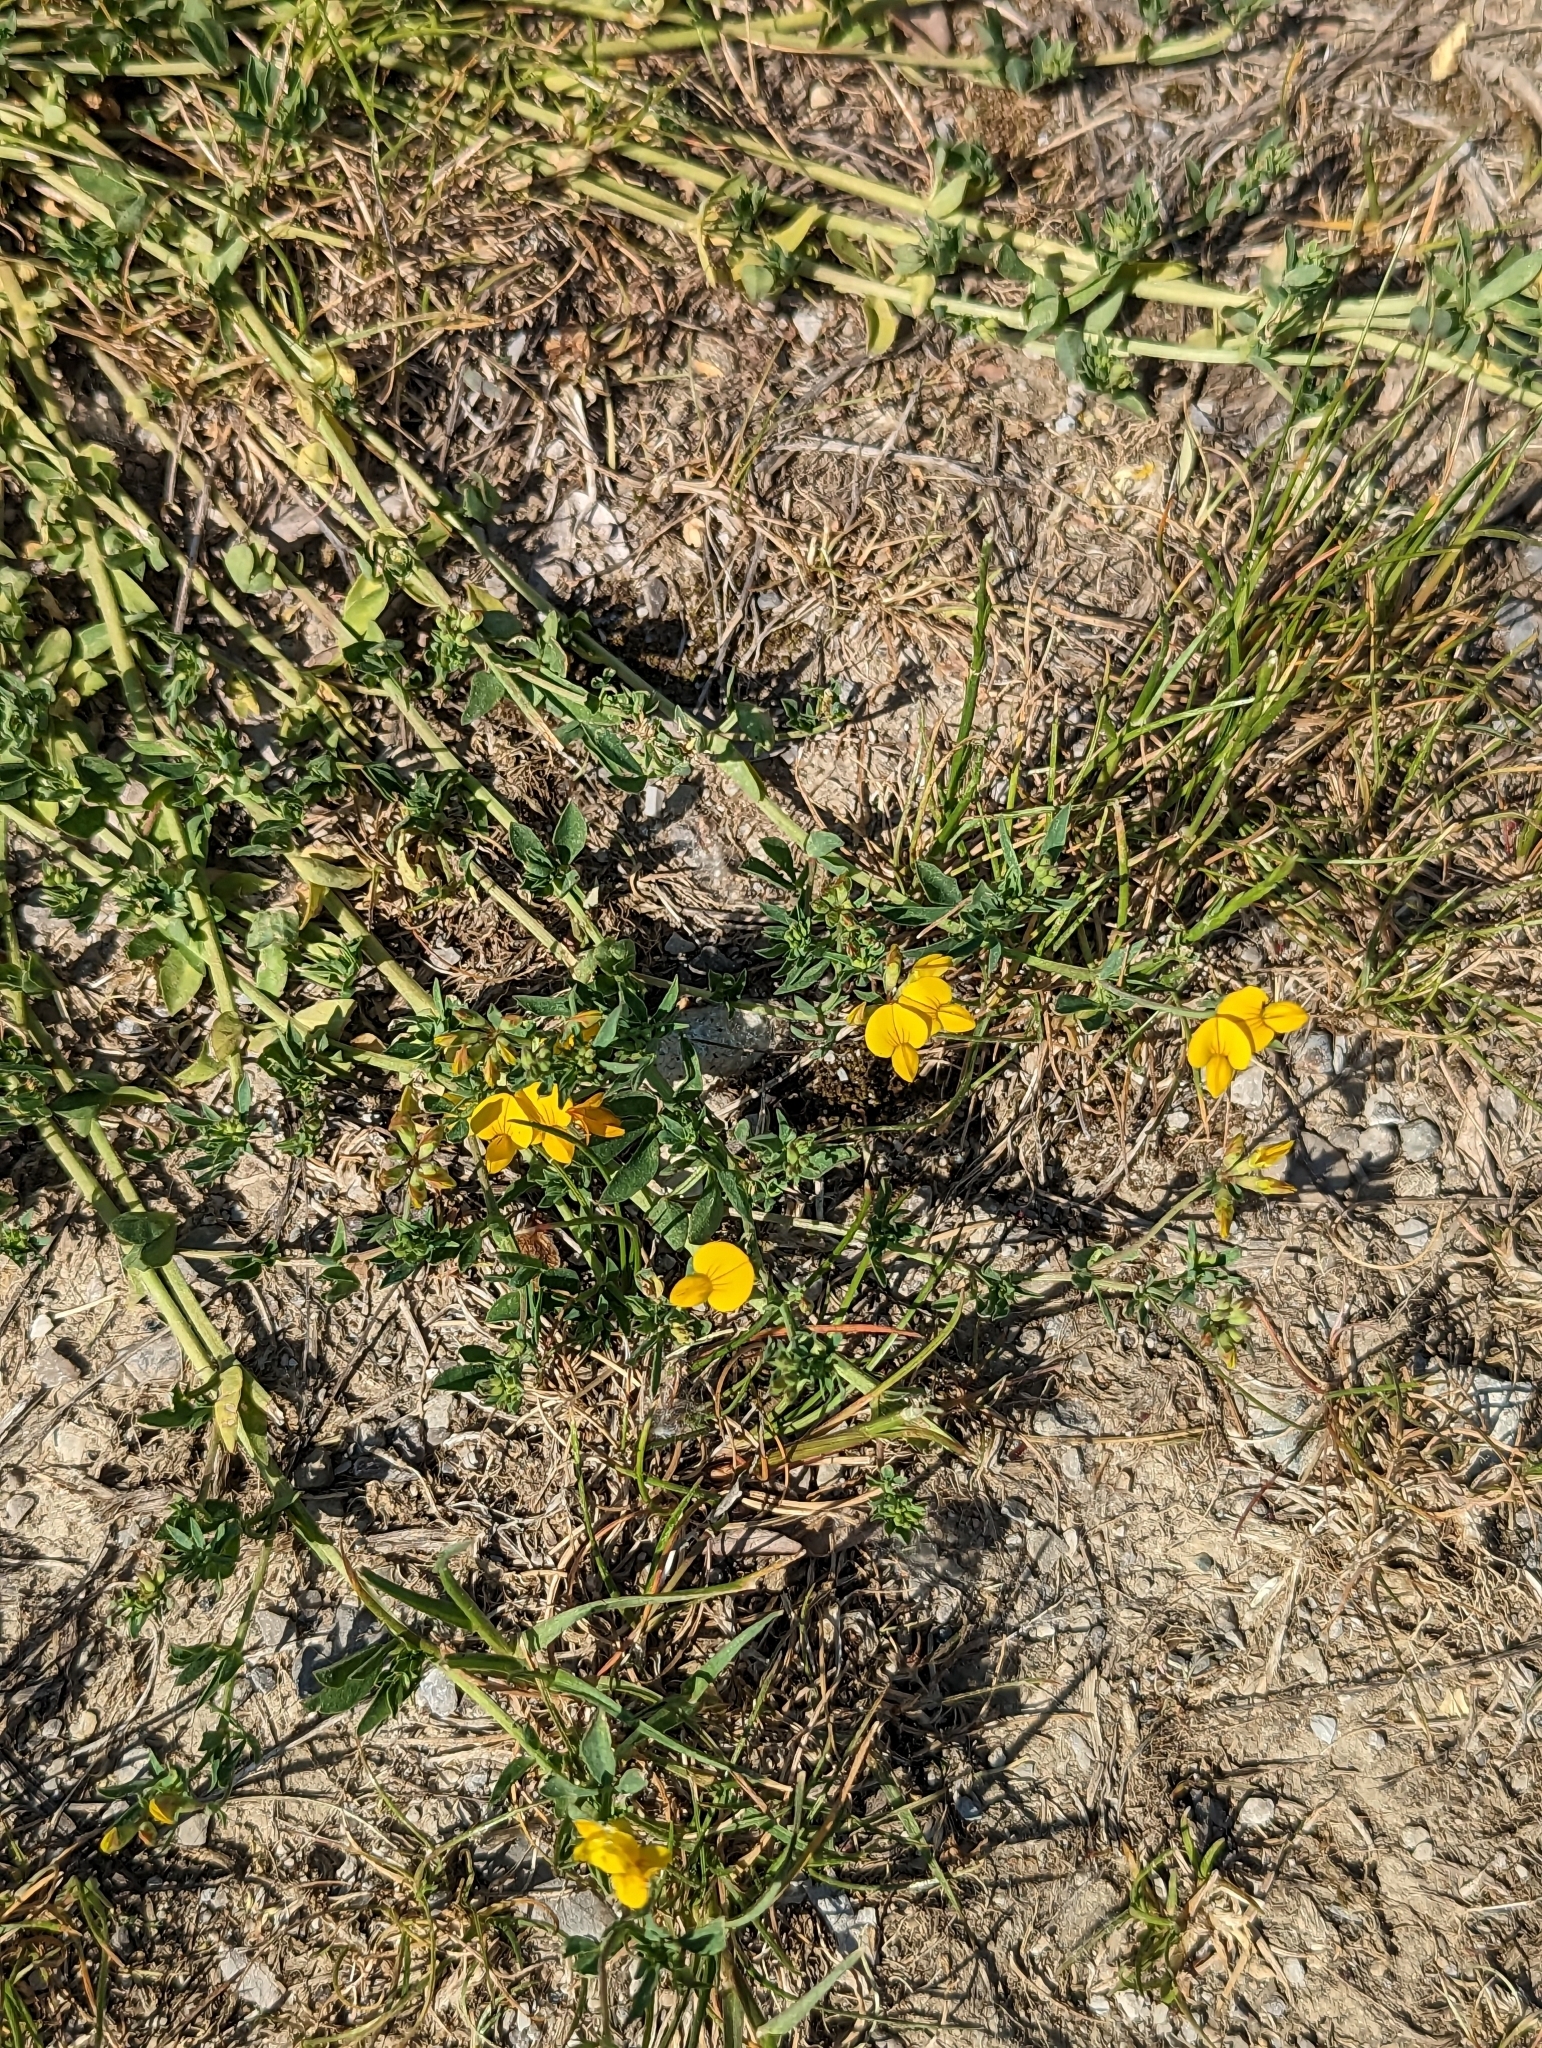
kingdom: Plantae
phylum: Tracheophyta
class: Magnoliopsida
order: Fabales
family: Fabaceae
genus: Lotus
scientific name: Lotus corniculatus
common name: Common bird's-foot-trefoil
